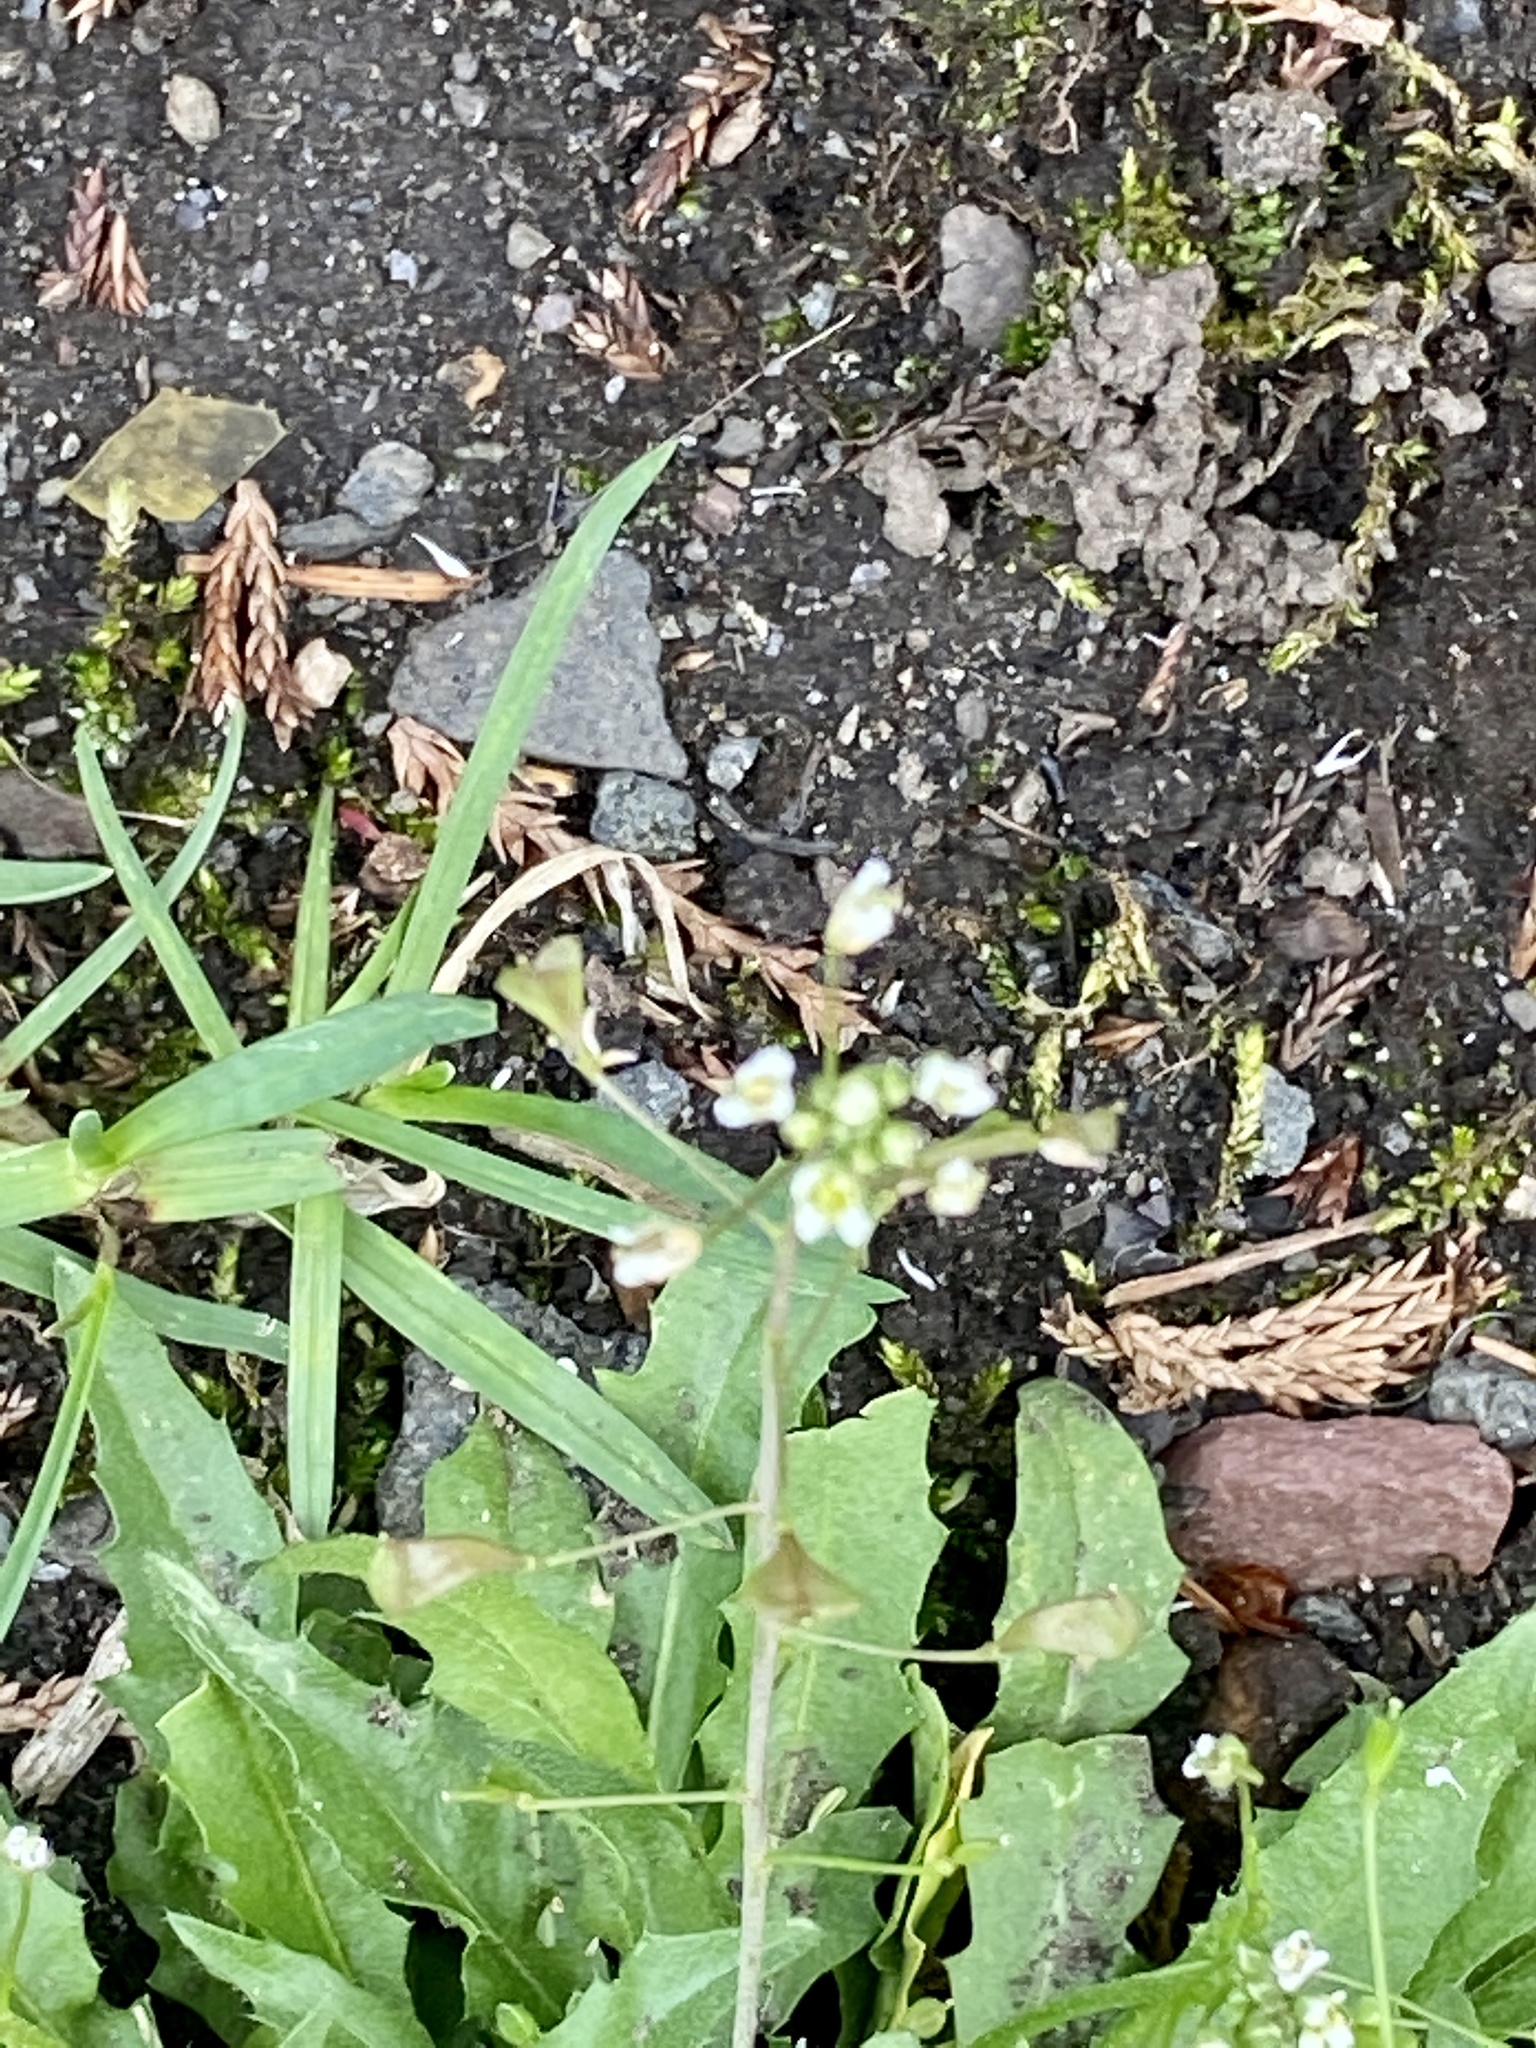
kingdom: Plantae
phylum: Tracheophyta
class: Magnoliopsida
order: Brassicales
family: Brassicaceae
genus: Capsella
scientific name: Capsella bursa-pastoris
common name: Shepherd's purse
